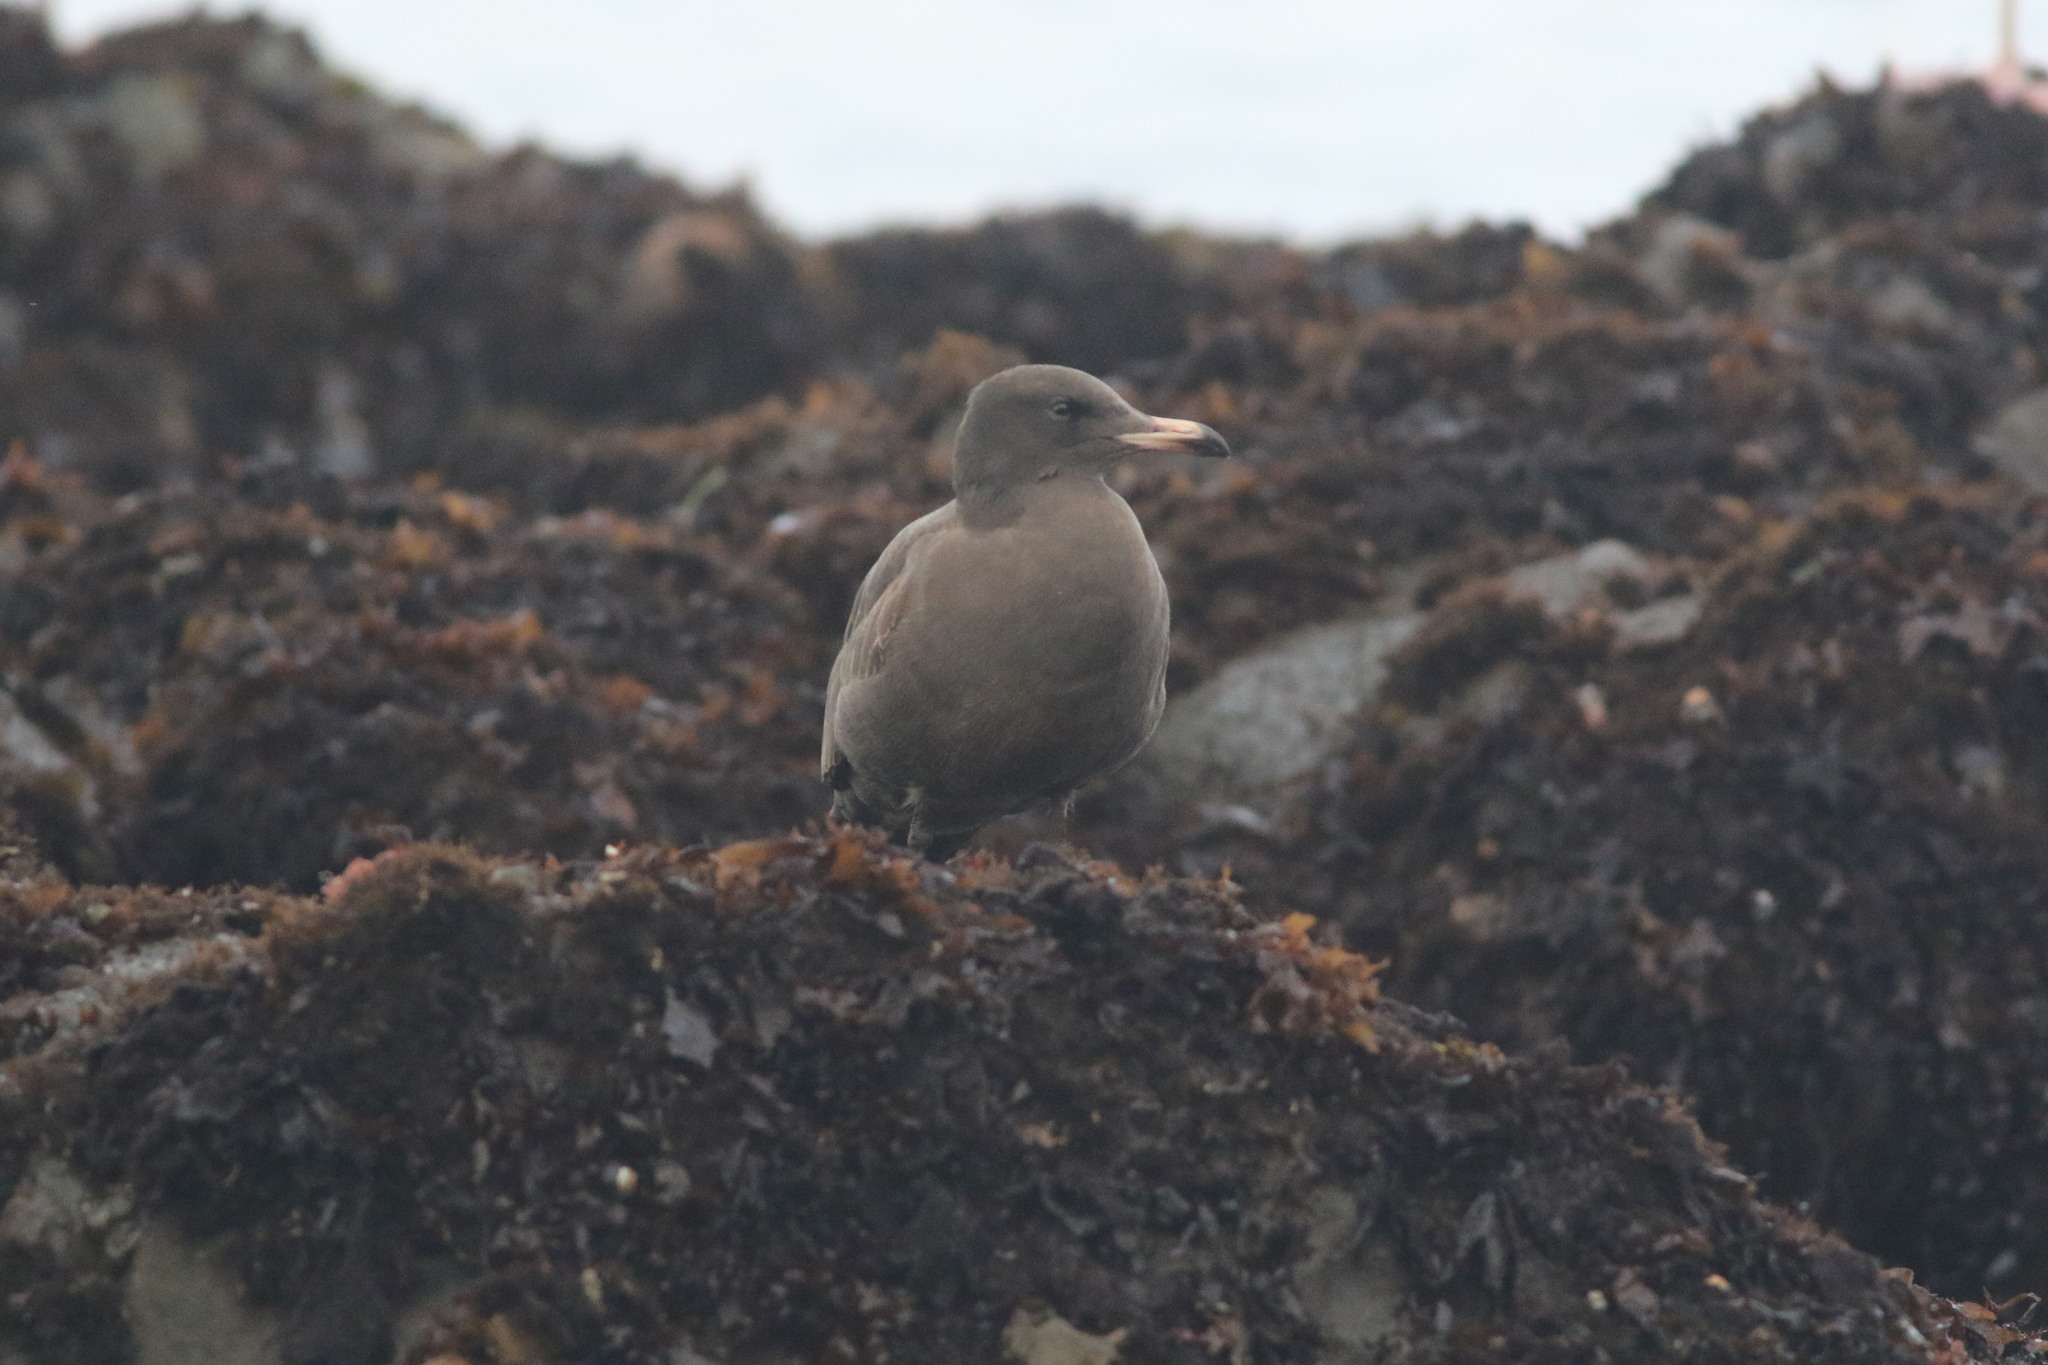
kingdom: Animalia
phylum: Chordata
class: Aves
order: Charadriiformes
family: Laridae
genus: Larus
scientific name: Larus heermanni
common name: Heermann's gull
